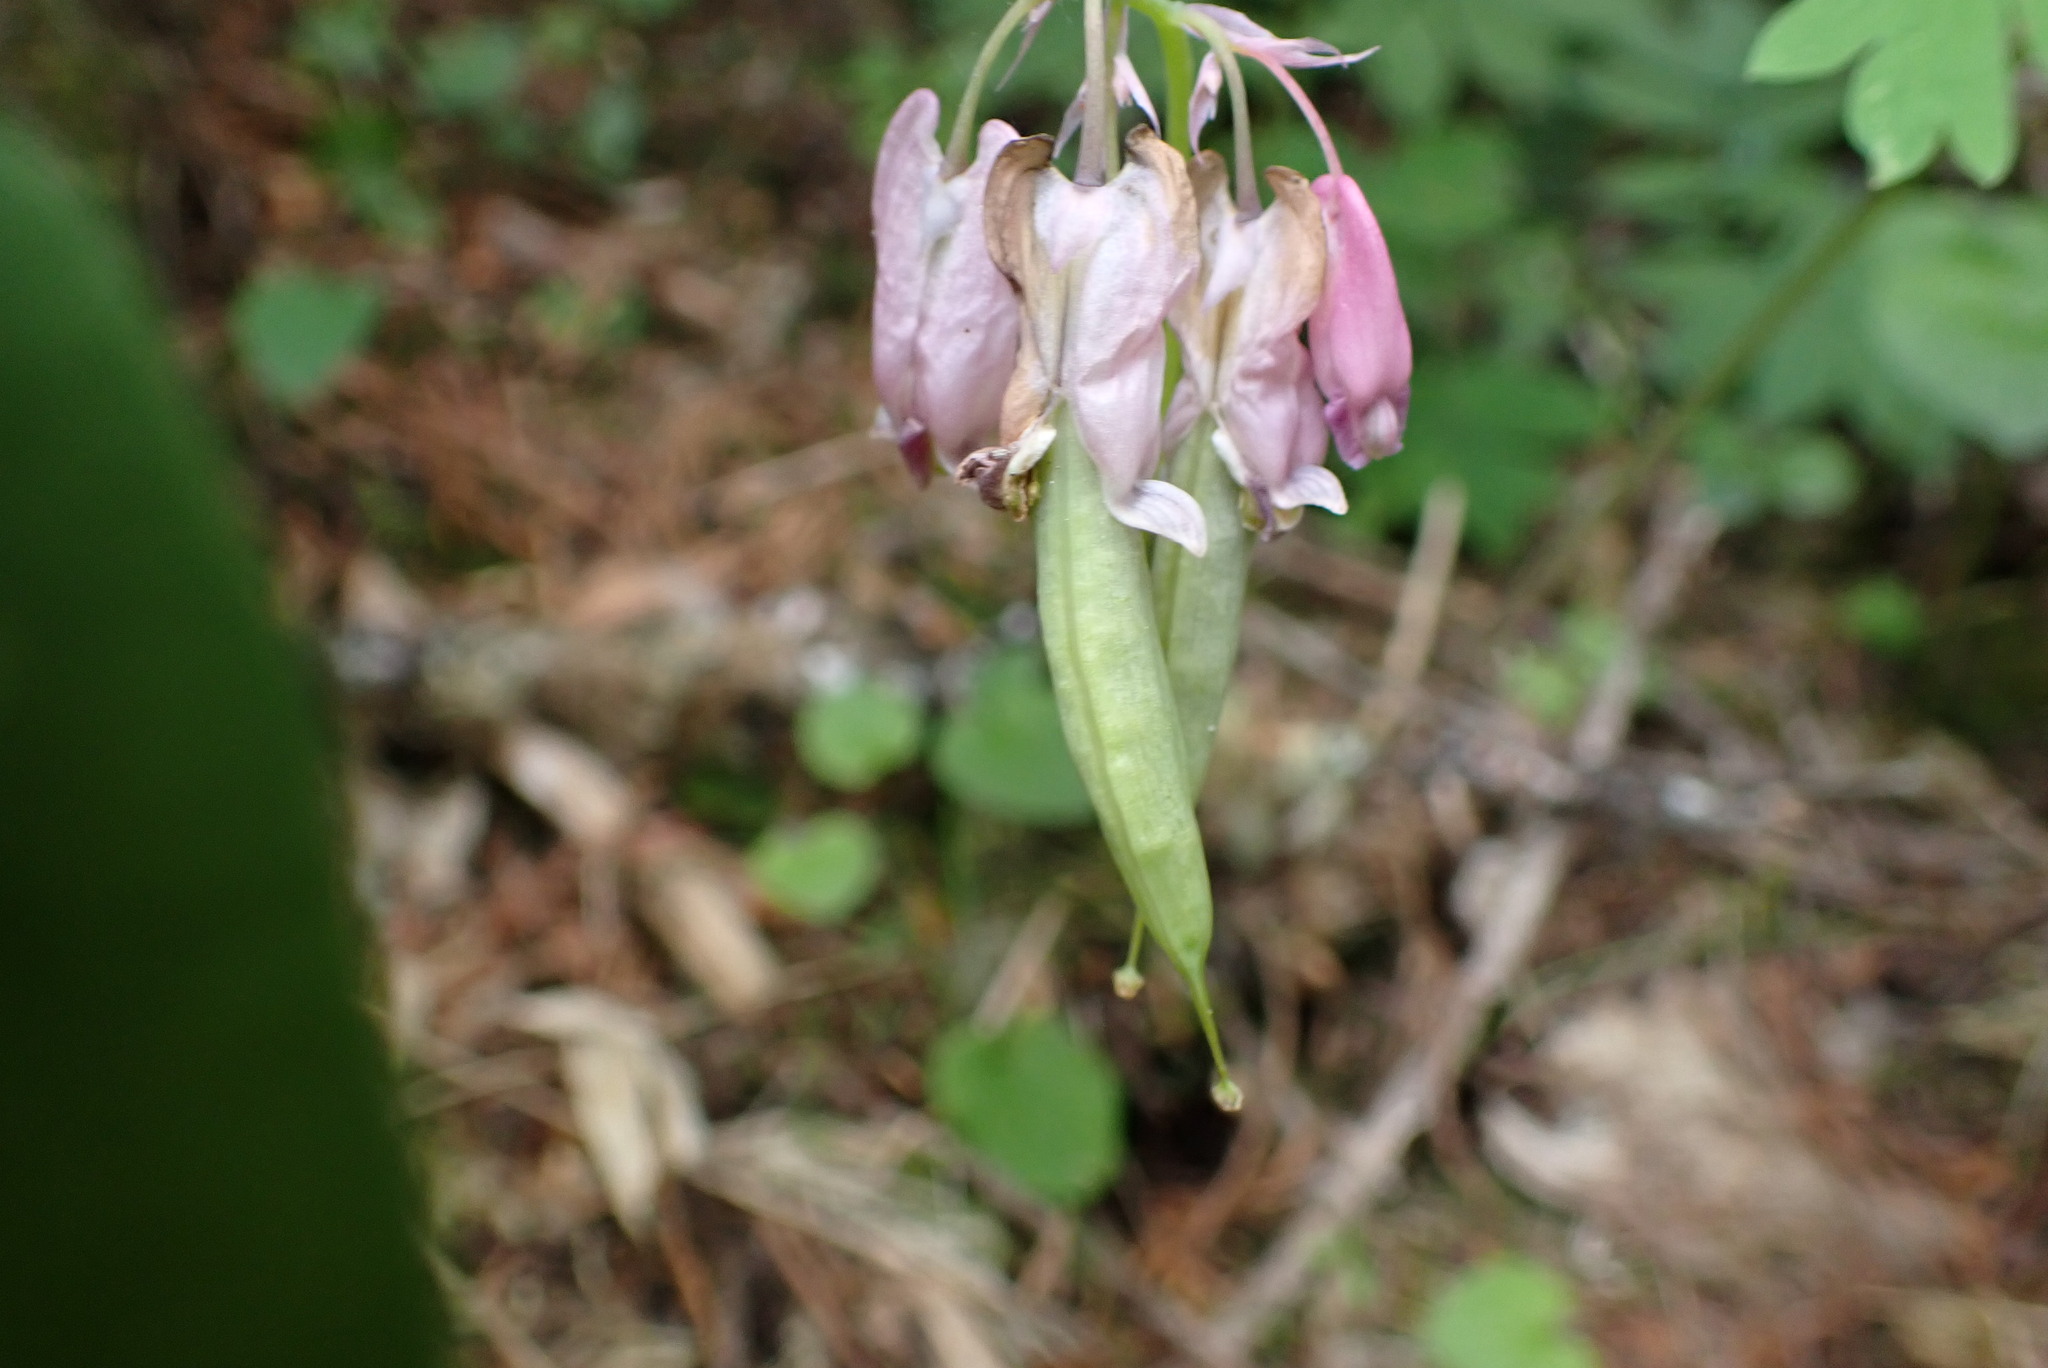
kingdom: Plantae
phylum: Tracheophyta
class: Magnoliopsida
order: Ranunculales
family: Papaveraceae
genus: Dicentra
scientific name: Dicentra formosa
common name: Bleeding-heart
